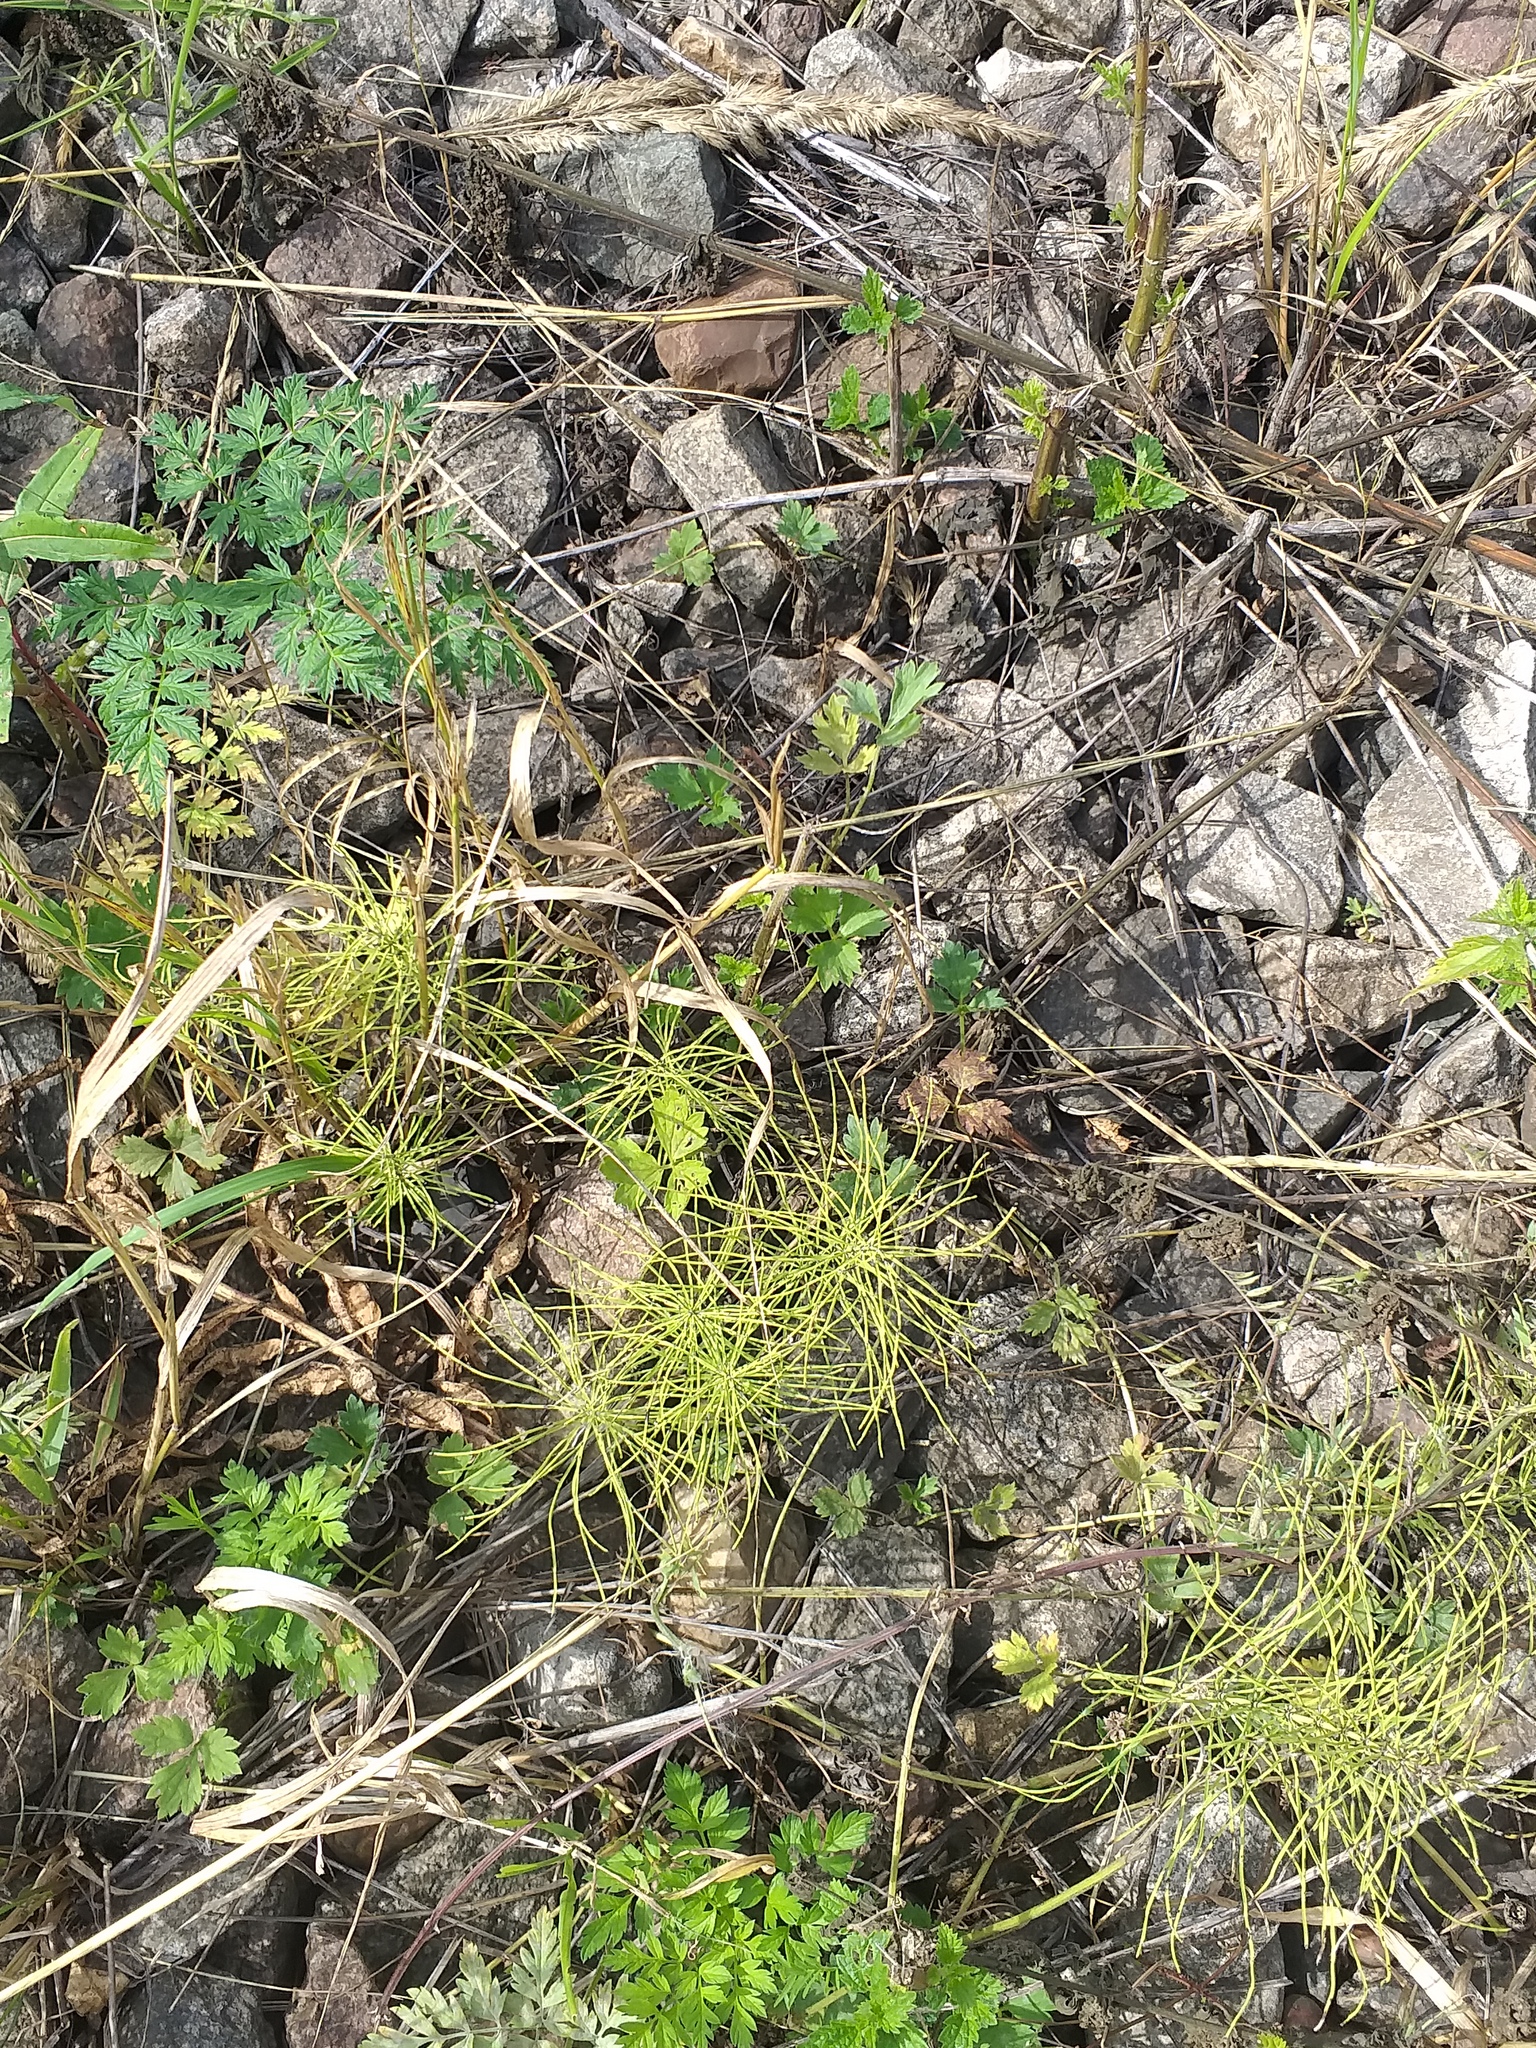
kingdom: Plantae
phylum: Tracheophyta
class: Magnoliopsida
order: Ranunculales
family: Ranunculaceae
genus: Ranunculus
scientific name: Ranunculus repens
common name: Creeping buttercup
